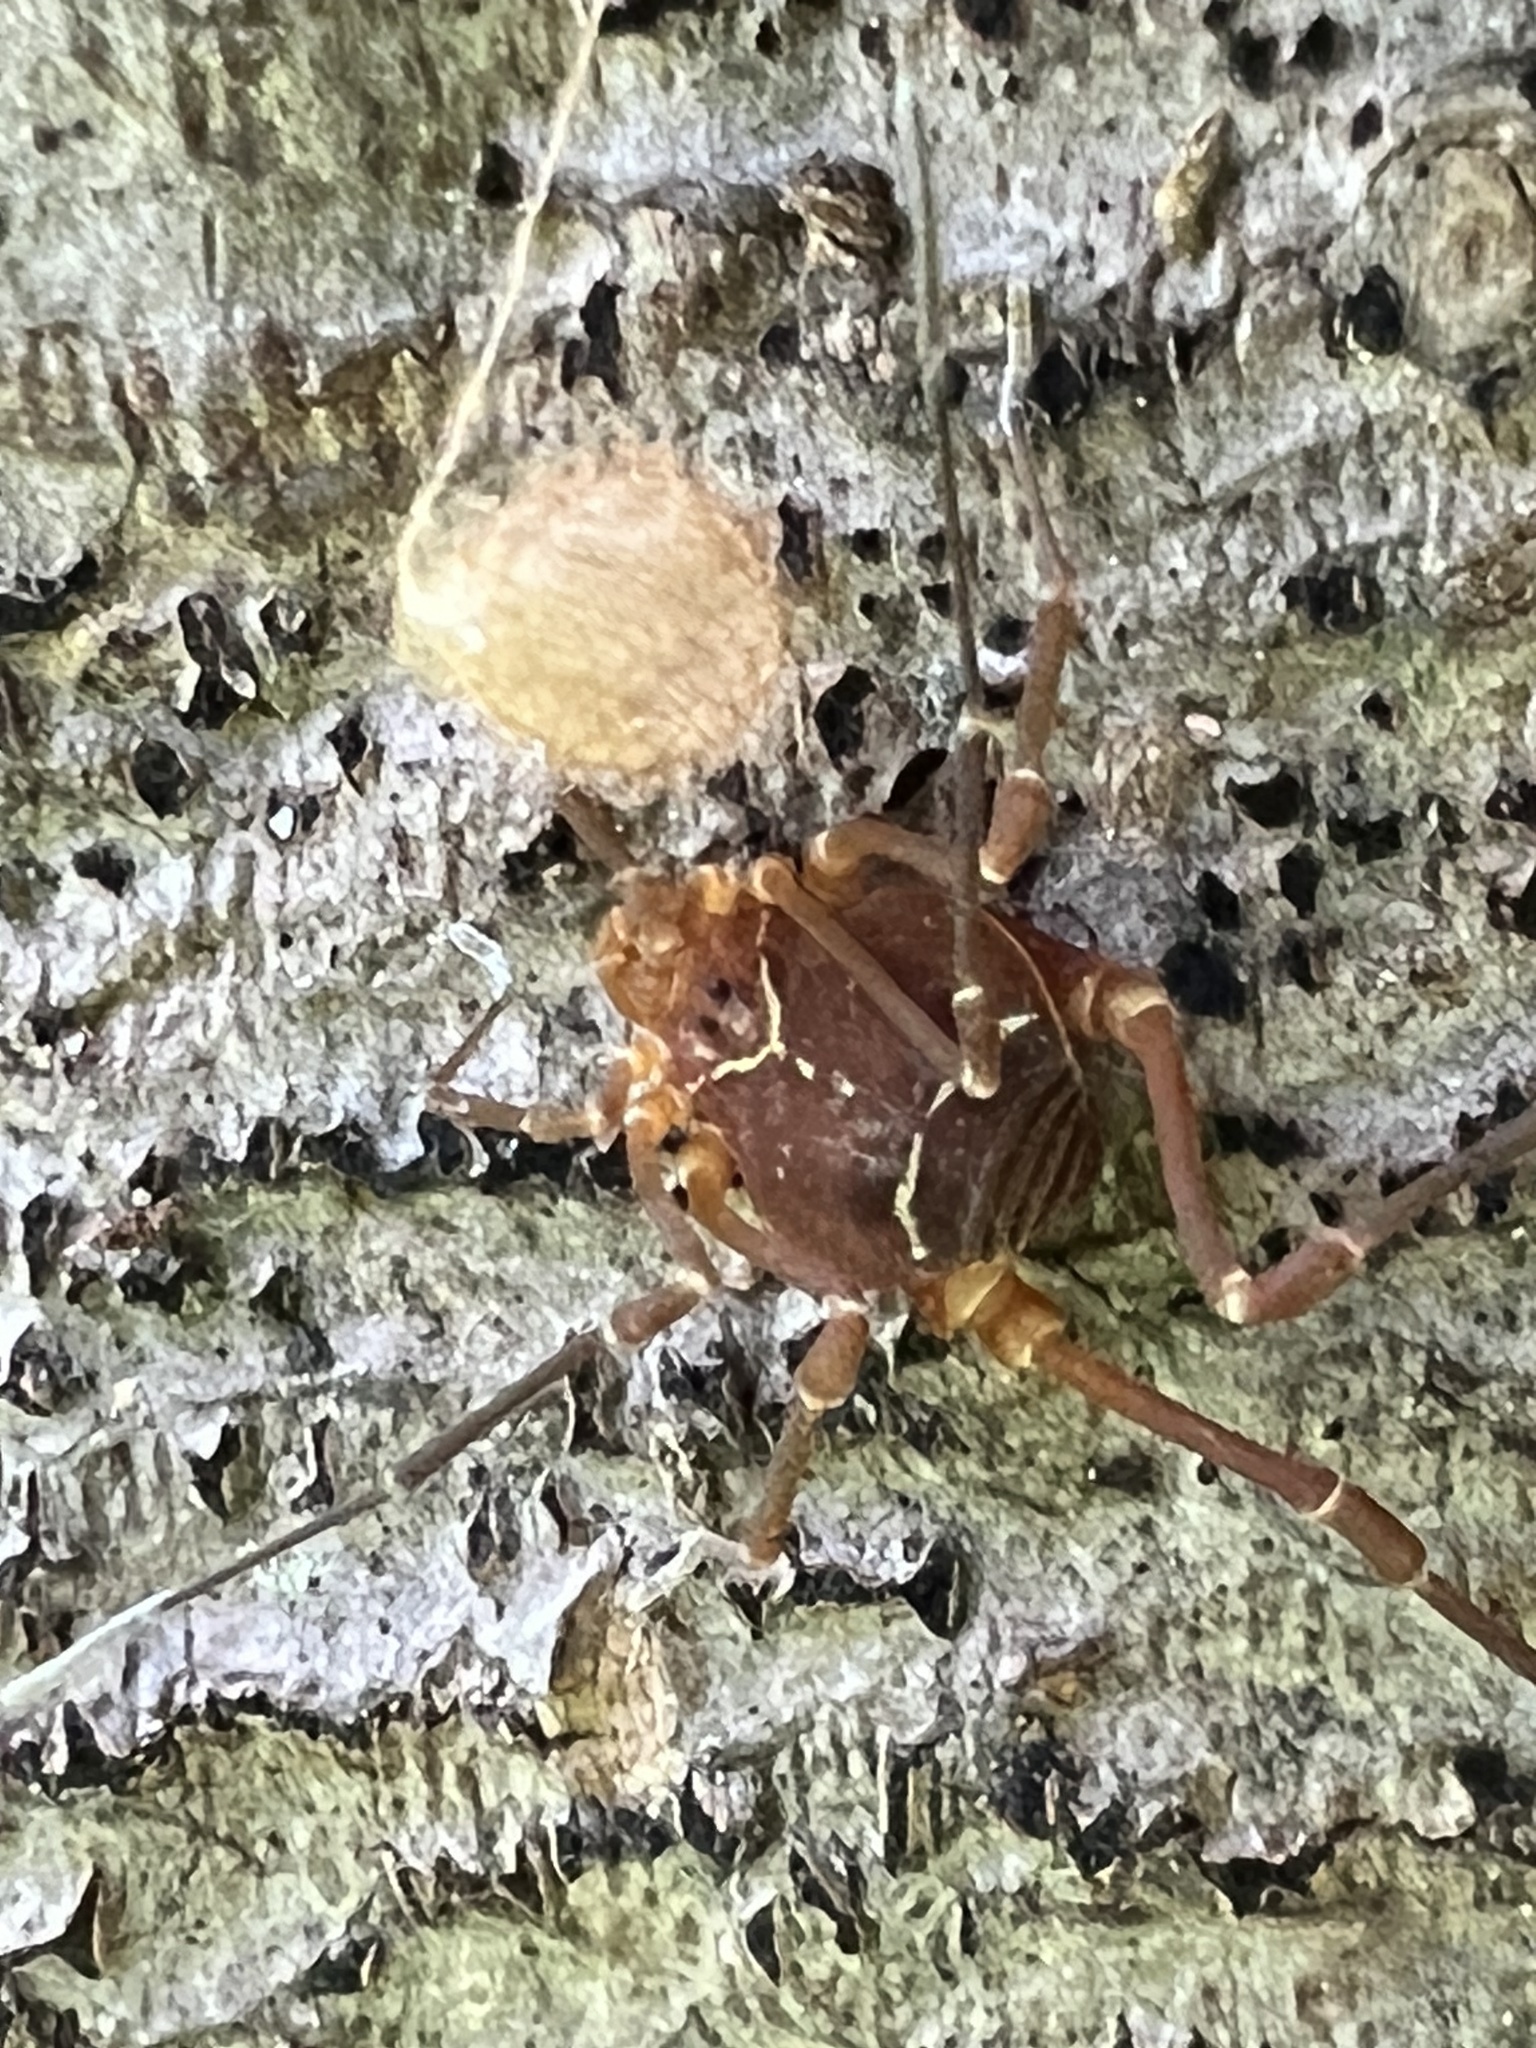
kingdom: Animalia
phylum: Arthropoda
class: Arachnida
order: Opiliones
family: Cosmetidae
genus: Libitioides
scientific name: Libitioides sayi
